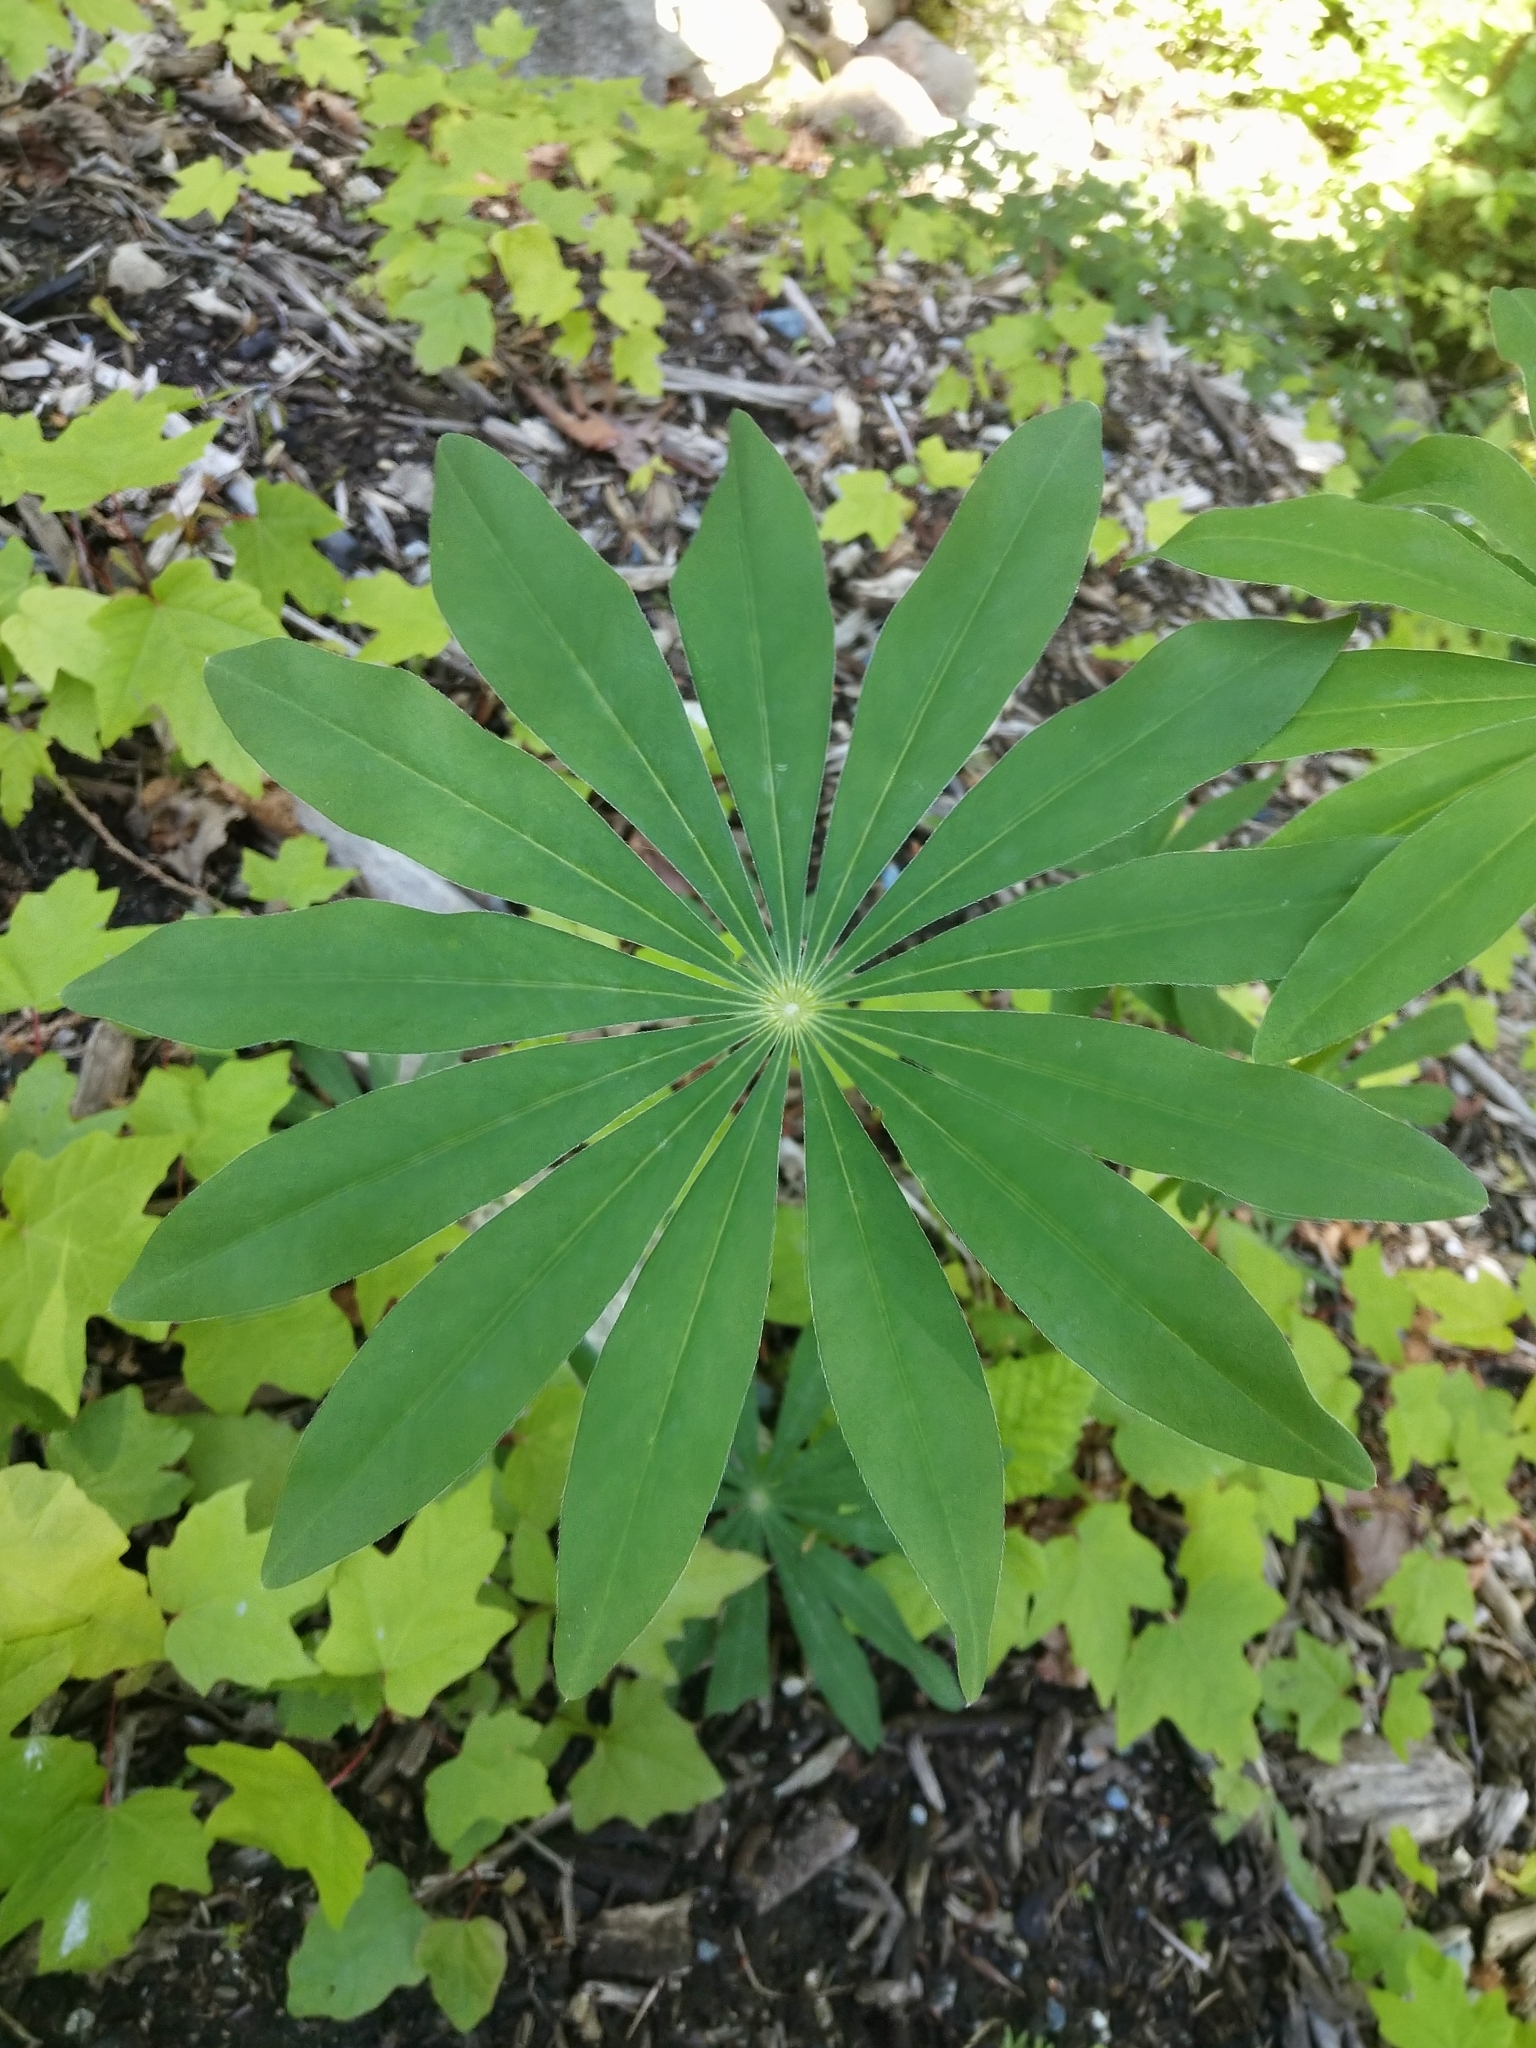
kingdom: Plantae
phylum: Tracheophyta
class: Magnoliopsida
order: Fabales
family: Fabaceae
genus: Lupinus
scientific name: Lupinus polyphyllus
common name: Garden lupin
